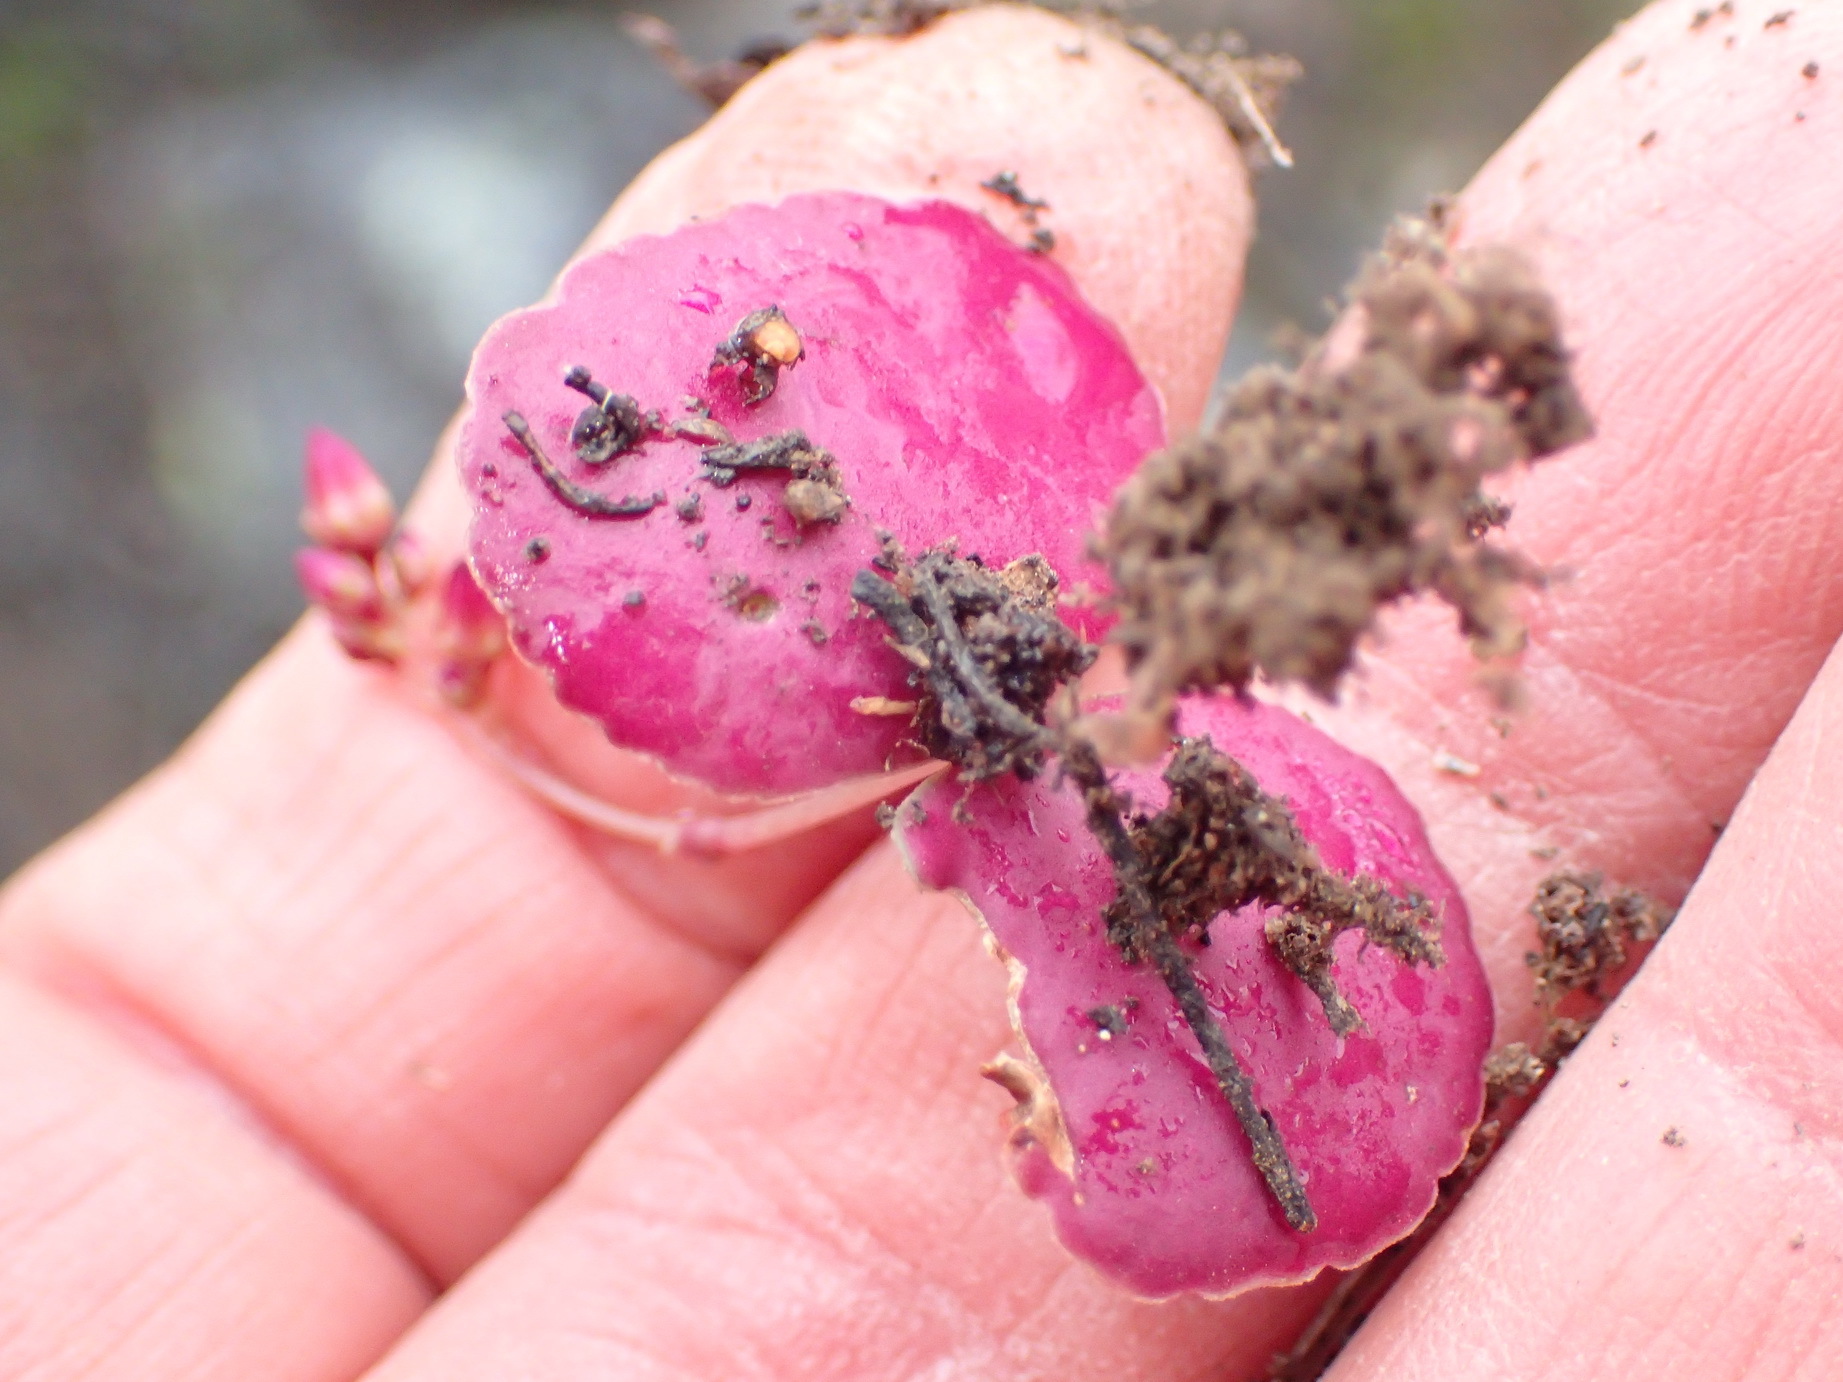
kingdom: Plantae
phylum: Tracheophyta
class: Magnoliopsida
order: Saxifragales
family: Crassulaceae
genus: Crassula
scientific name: Crassula umbella
